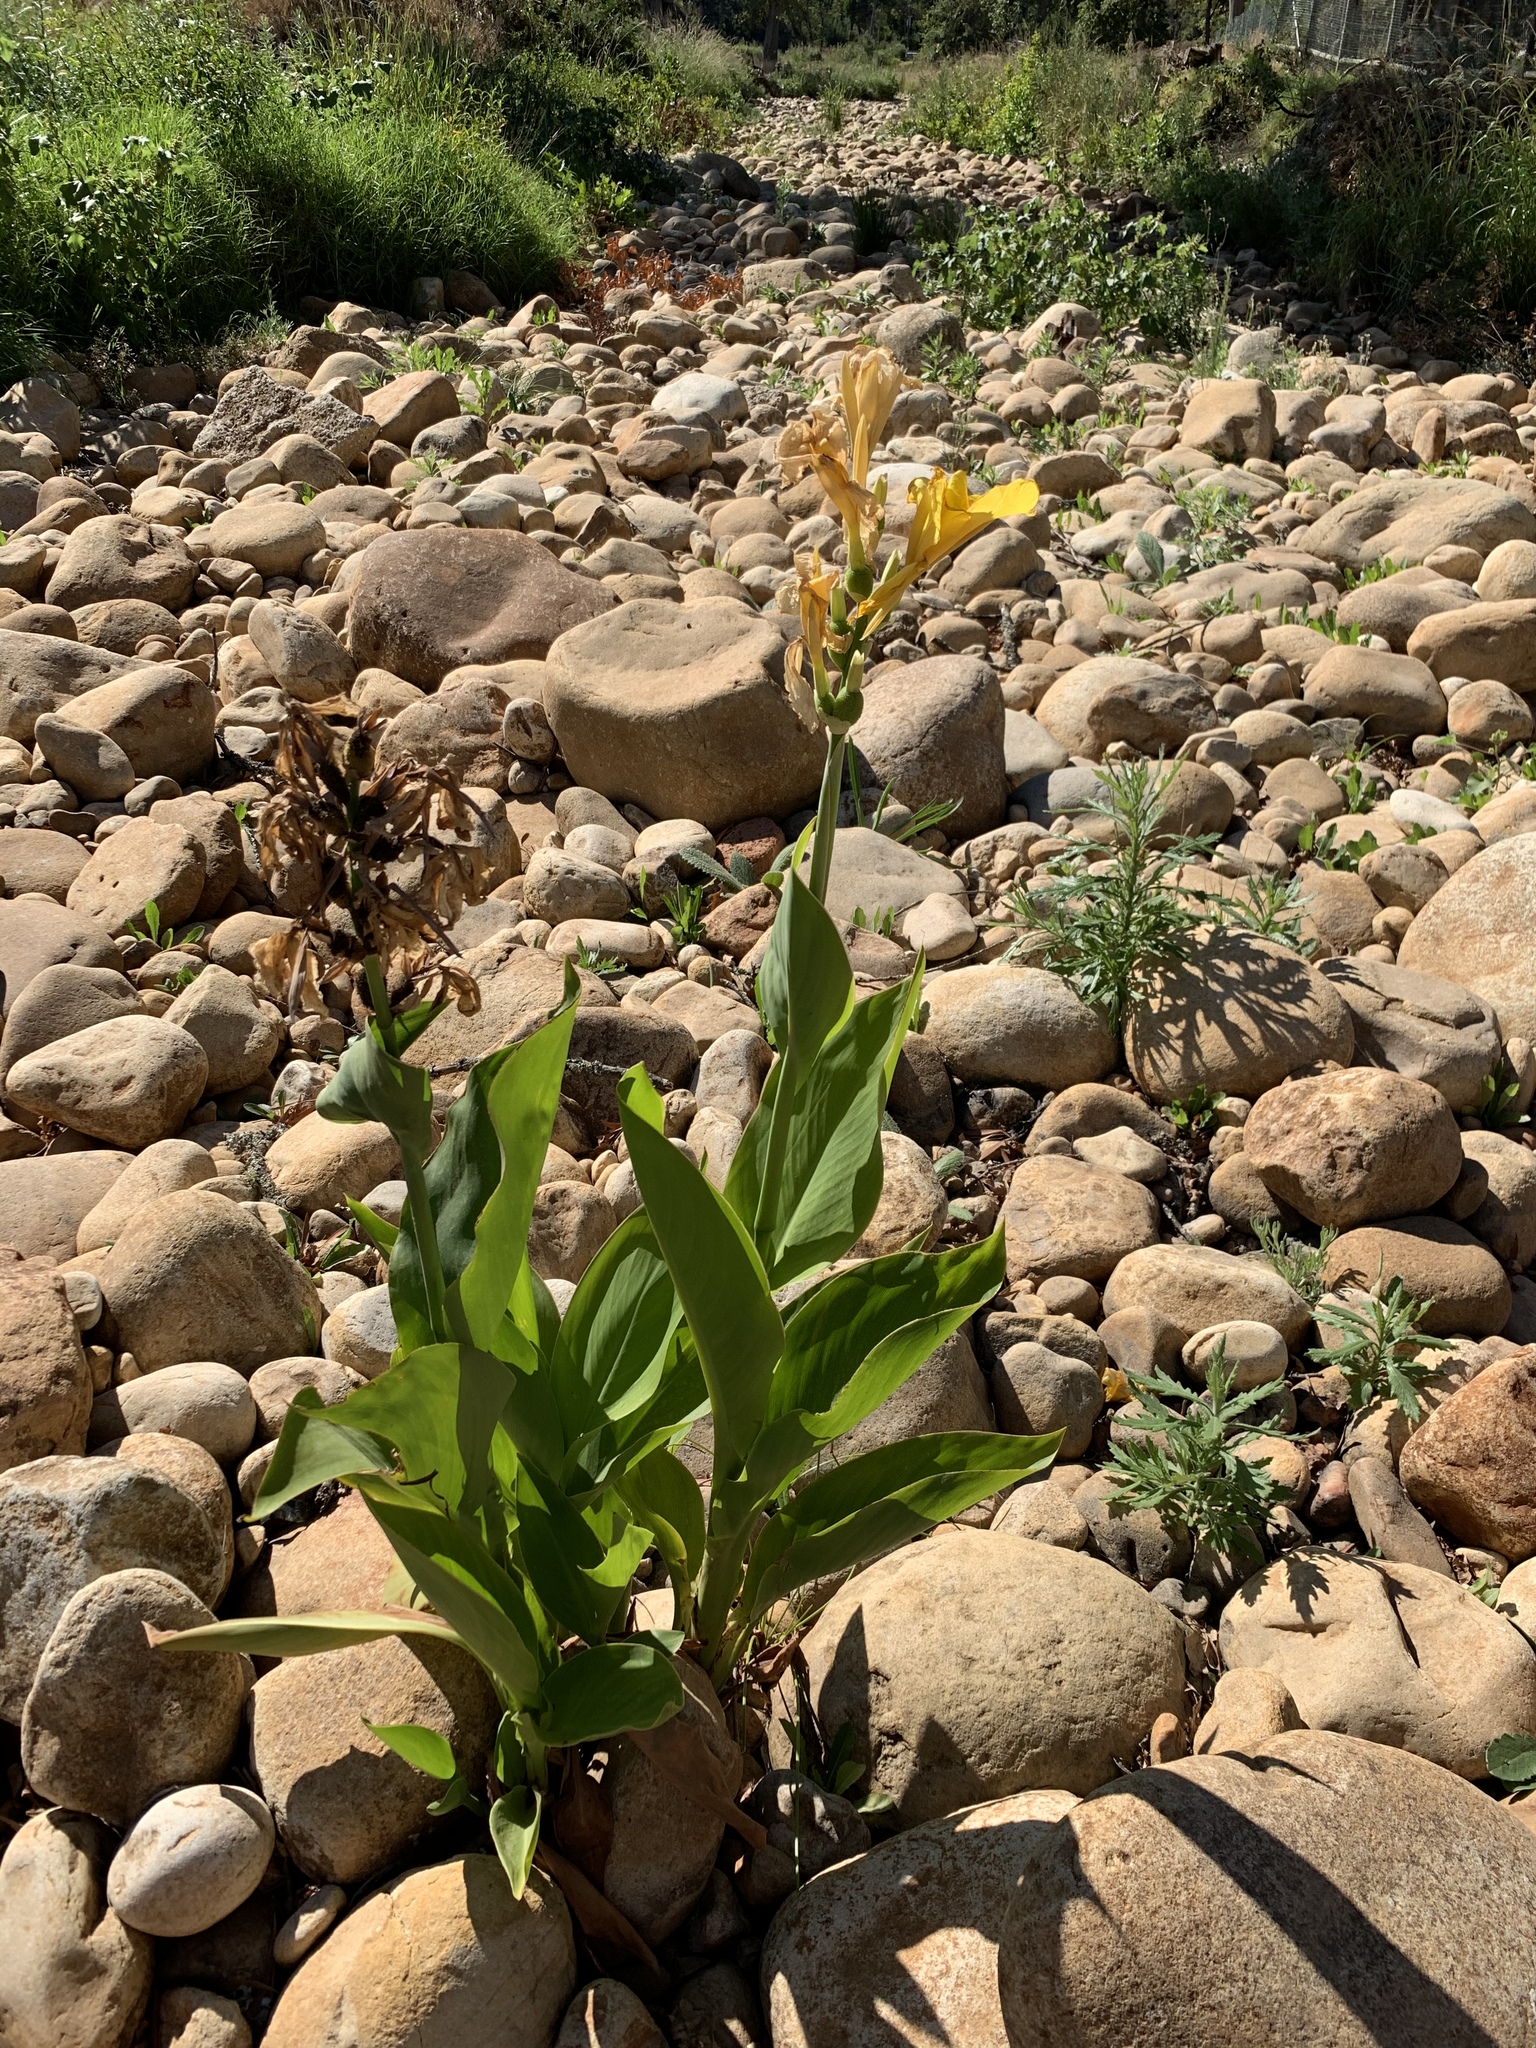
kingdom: Plantae
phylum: Tracheophyta
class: Liliopsida
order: Zingiberales
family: Cannaceae
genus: Canna
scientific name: Canna hybrida
